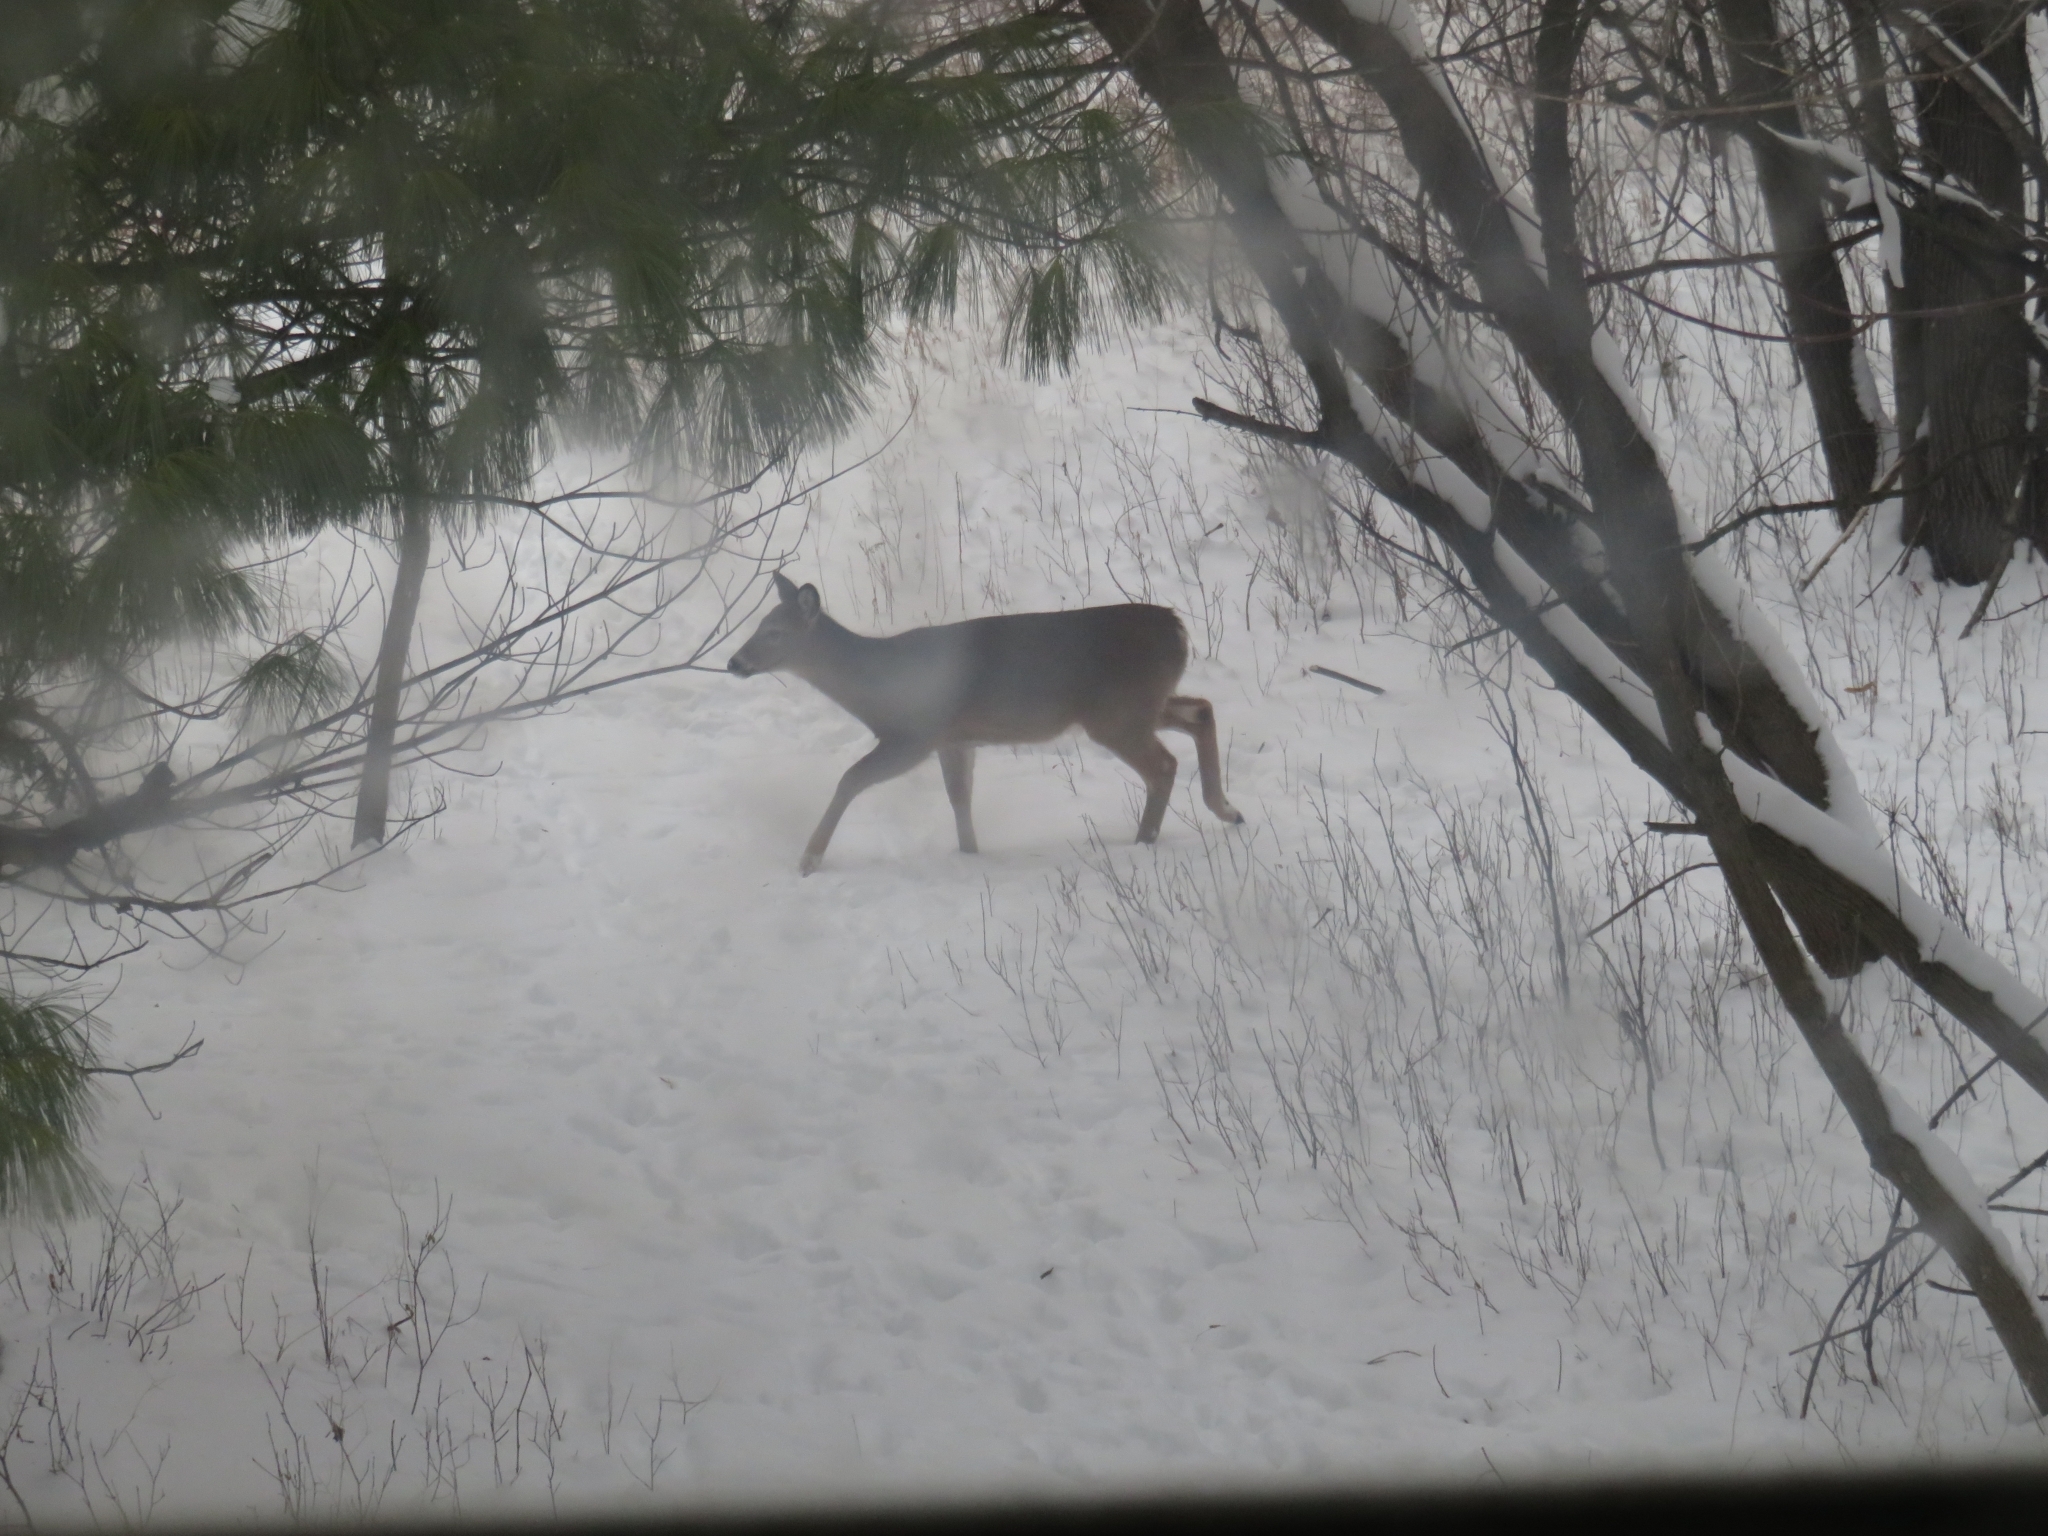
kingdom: Animalia
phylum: Chordata
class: Mammalia
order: Artiodactyla
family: Cervidae
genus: Odocoileus
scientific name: Odocoileus virginianus
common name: White-tailed deer
